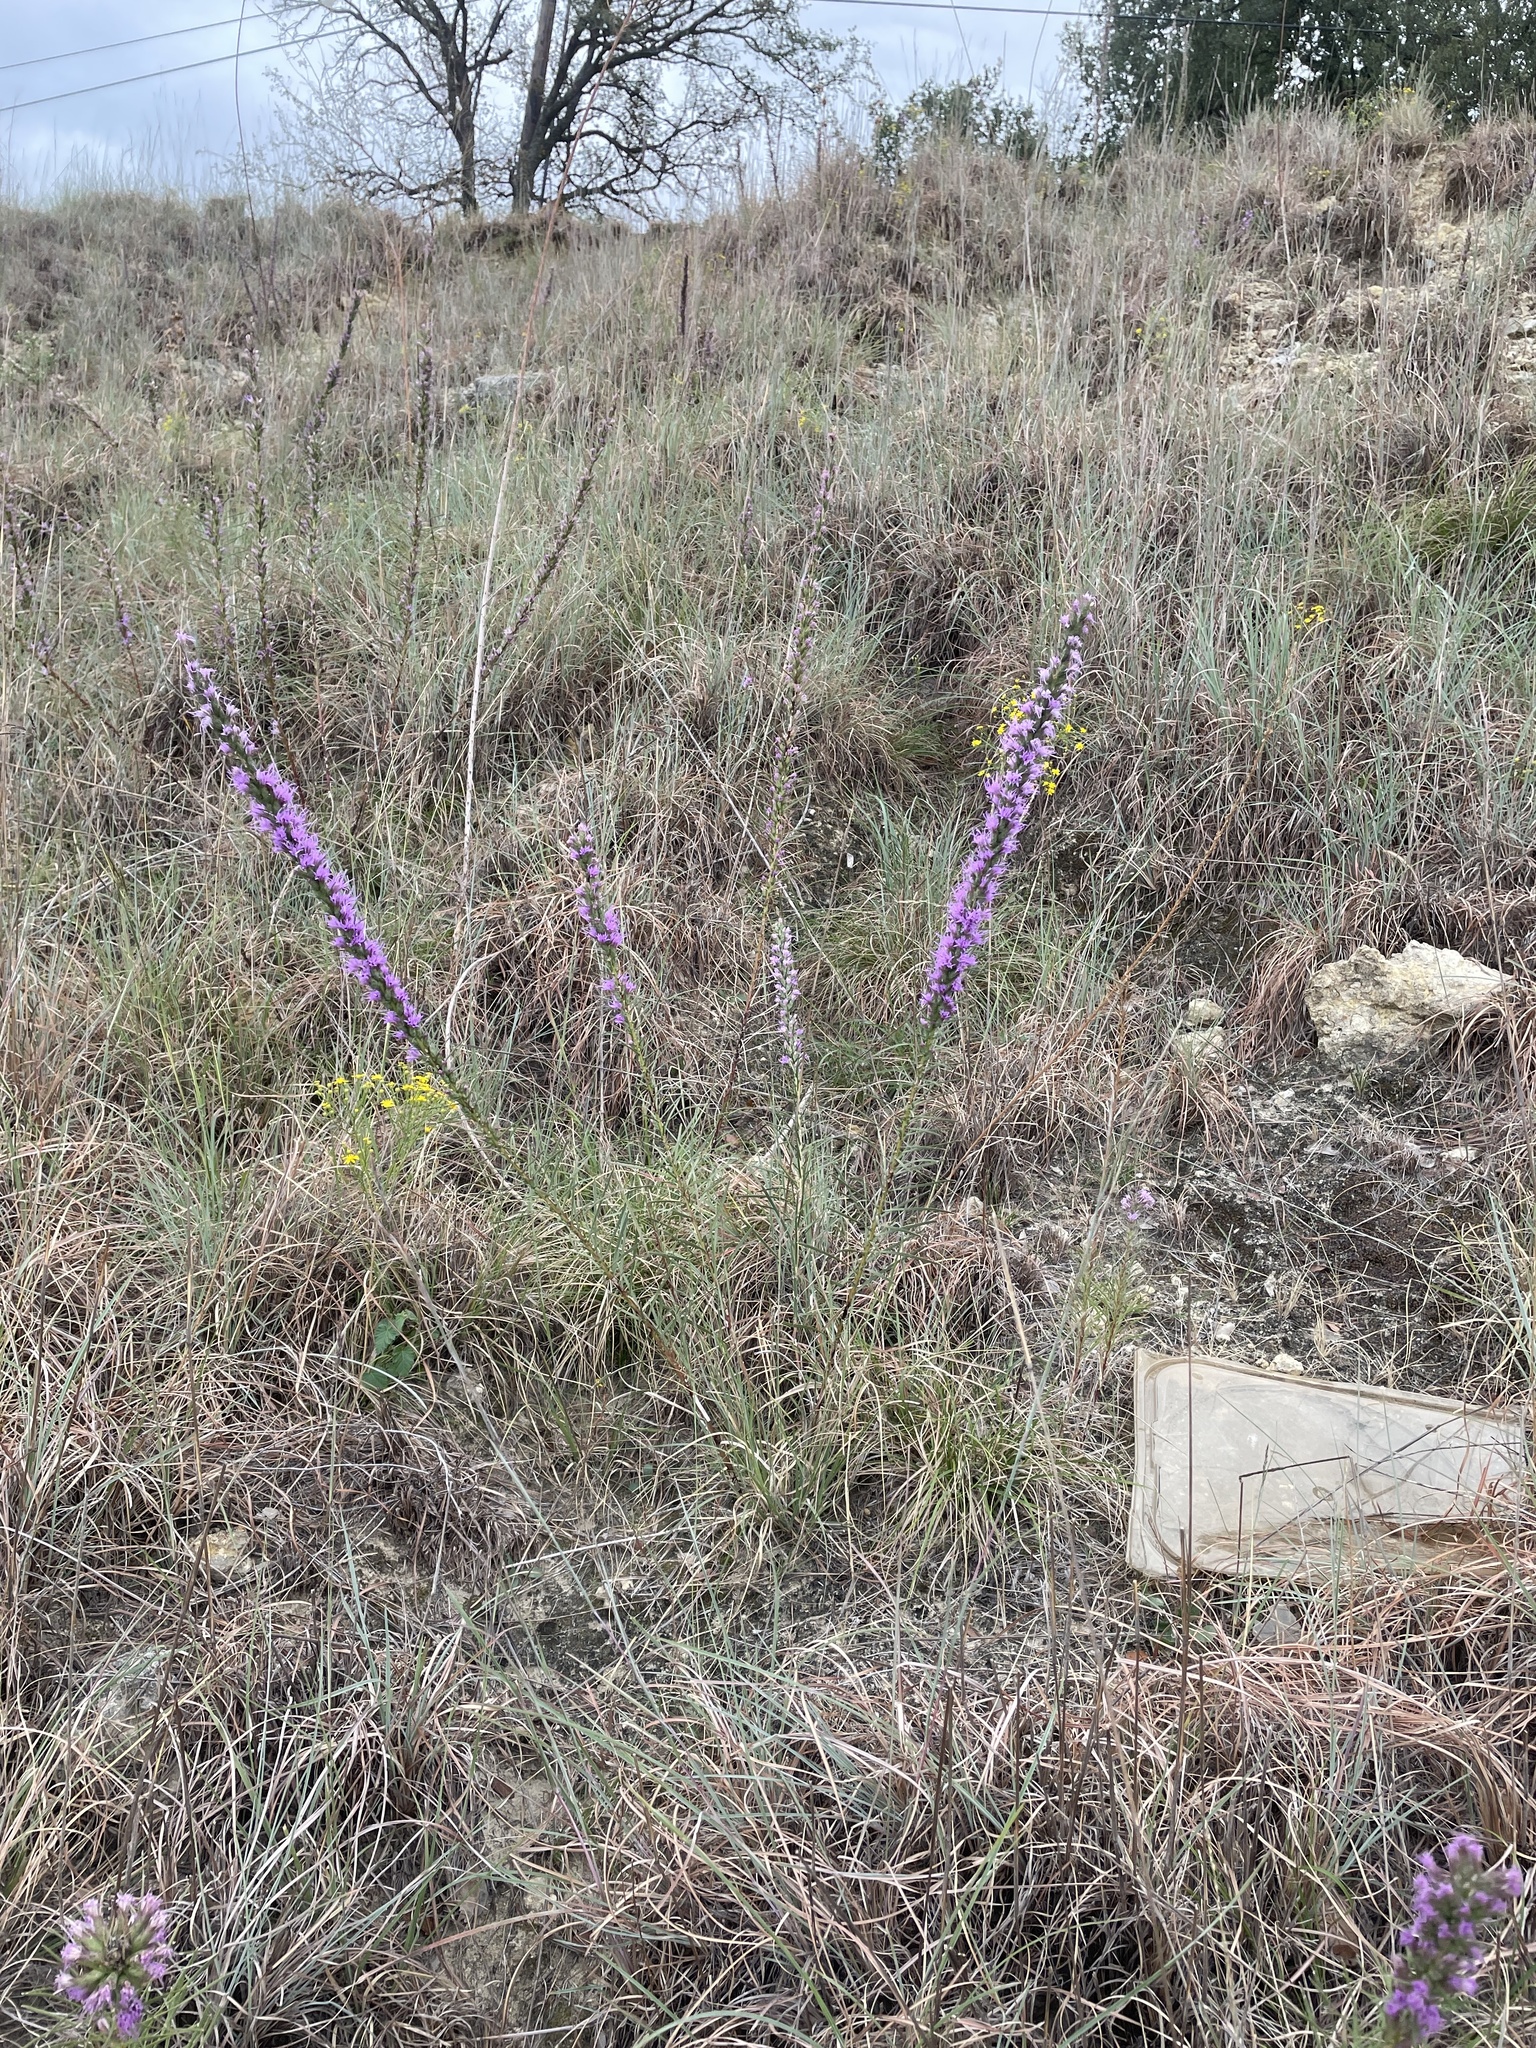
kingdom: Plantae
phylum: Tracheophyta
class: Magnoliopsida
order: Asterales
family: Asteraceae
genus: Liatris
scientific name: Liatris punctata
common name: Dotted gayfeather
